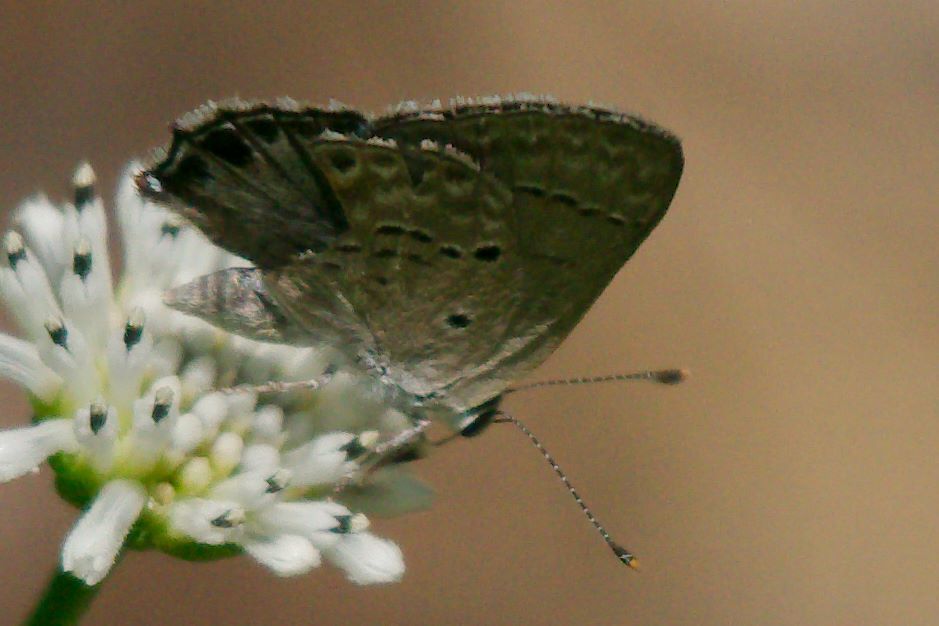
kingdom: Animalia
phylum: Arthropoda
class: Insecta
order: Lepidoptera
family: Lycaenidae
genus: Callicista
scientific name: Callicista columella
